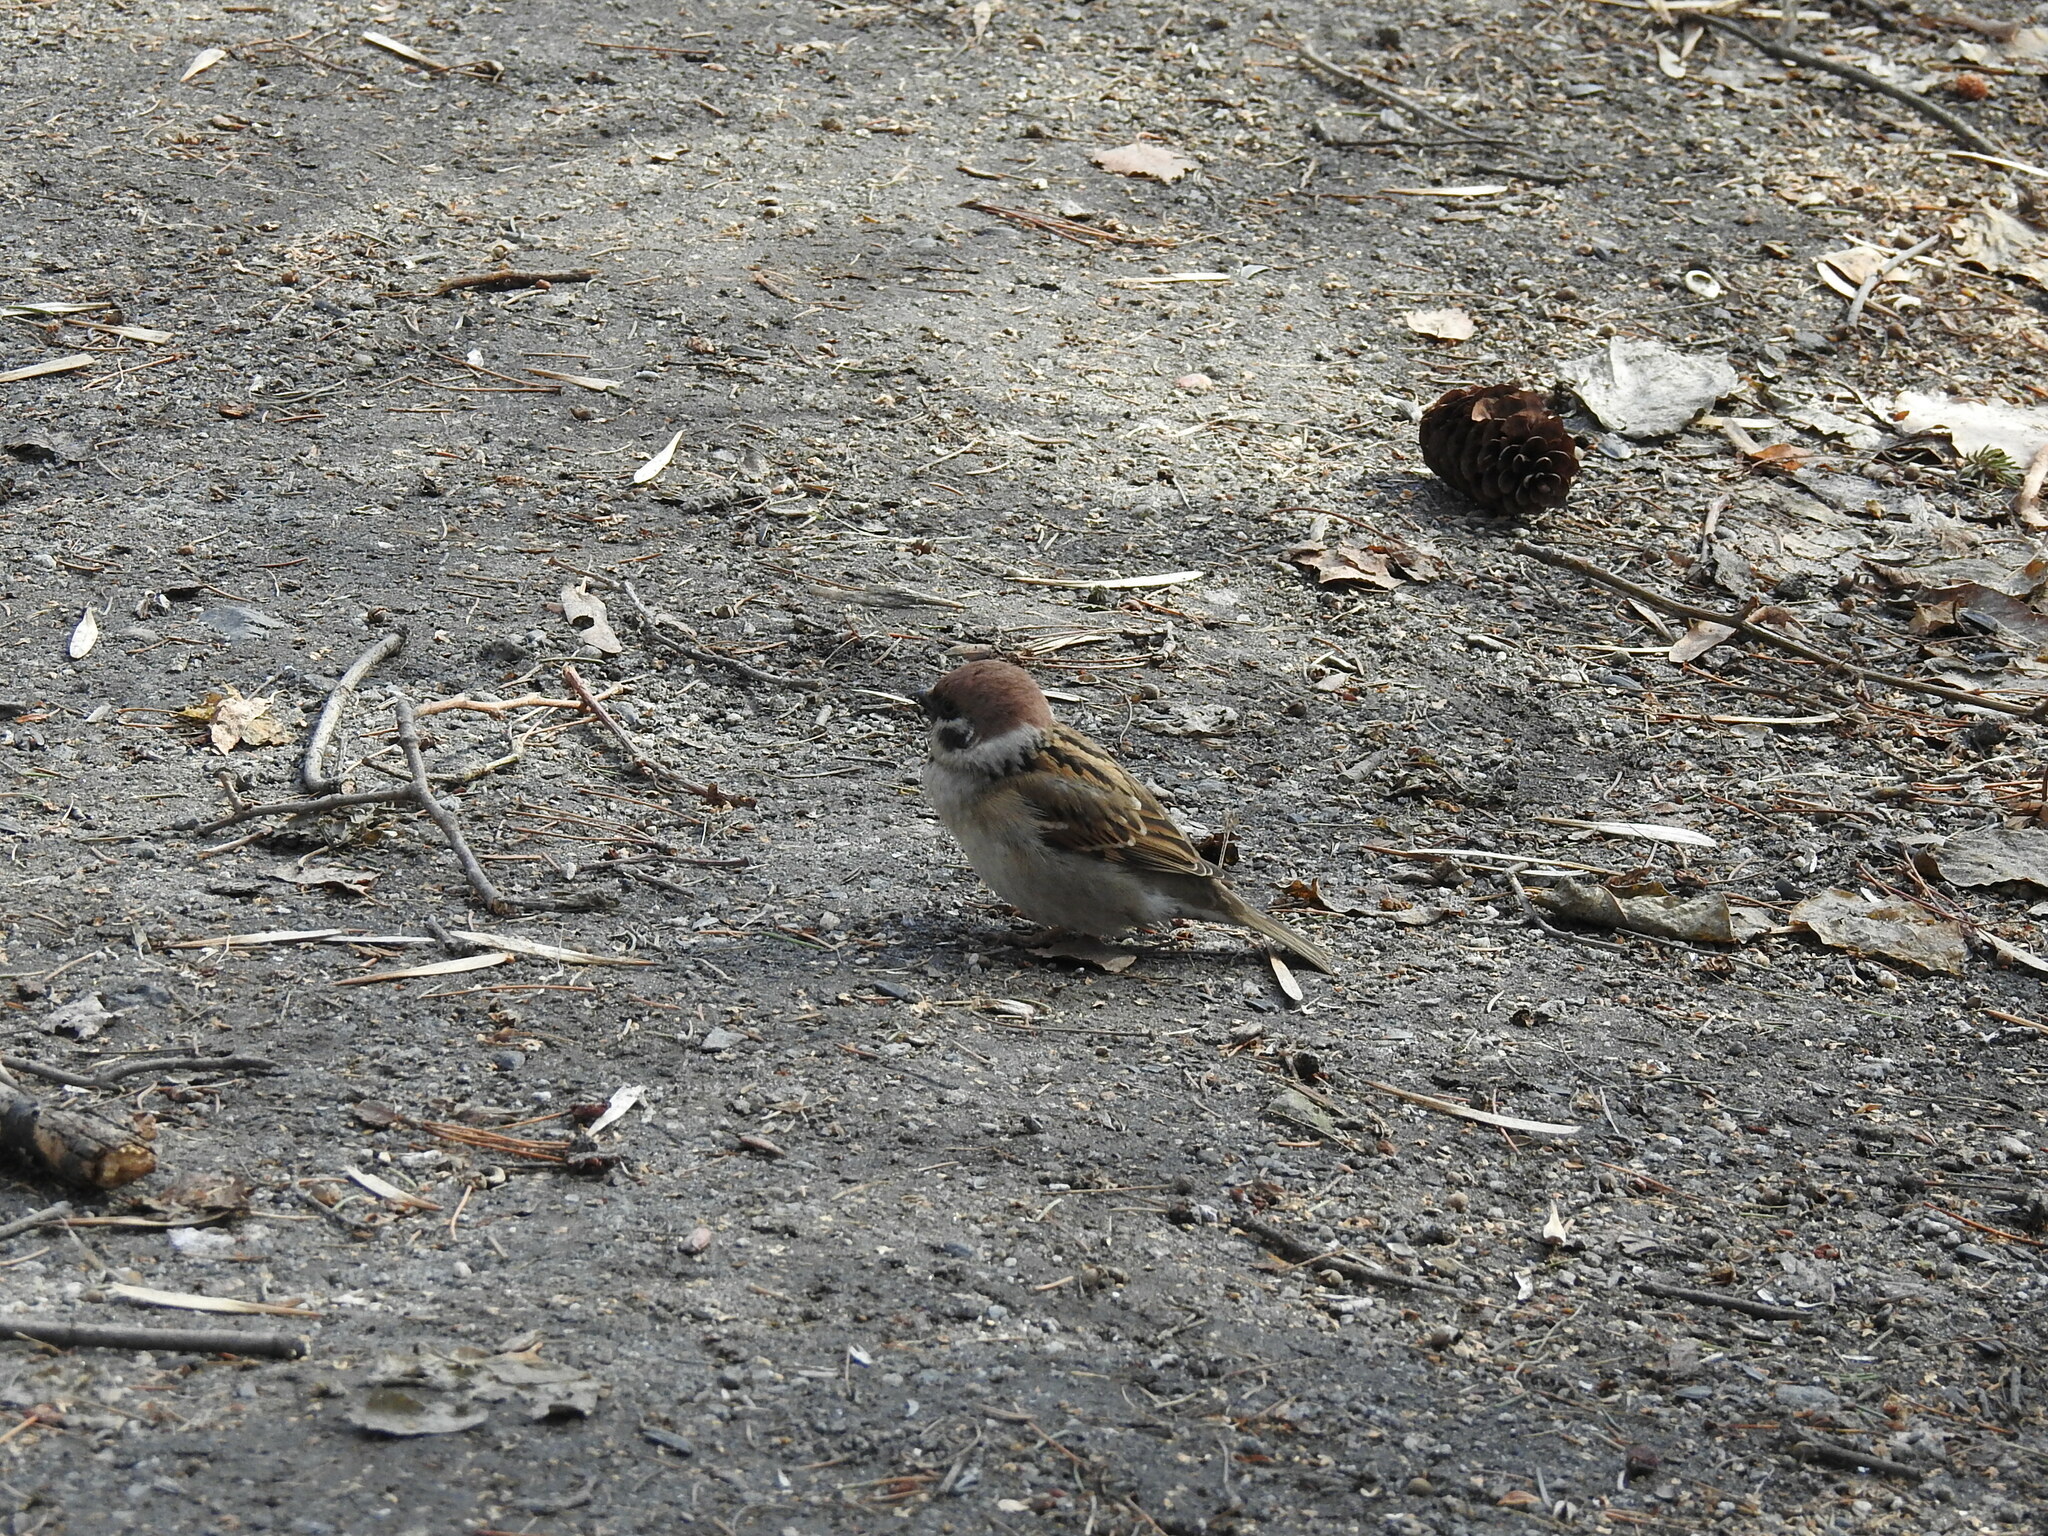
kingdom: Animalia
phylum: Chordata
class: Aves
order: Passeriformes
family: Passeridae
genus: Passer
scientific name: Passer montanus
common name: Eurasian tree sparrow
